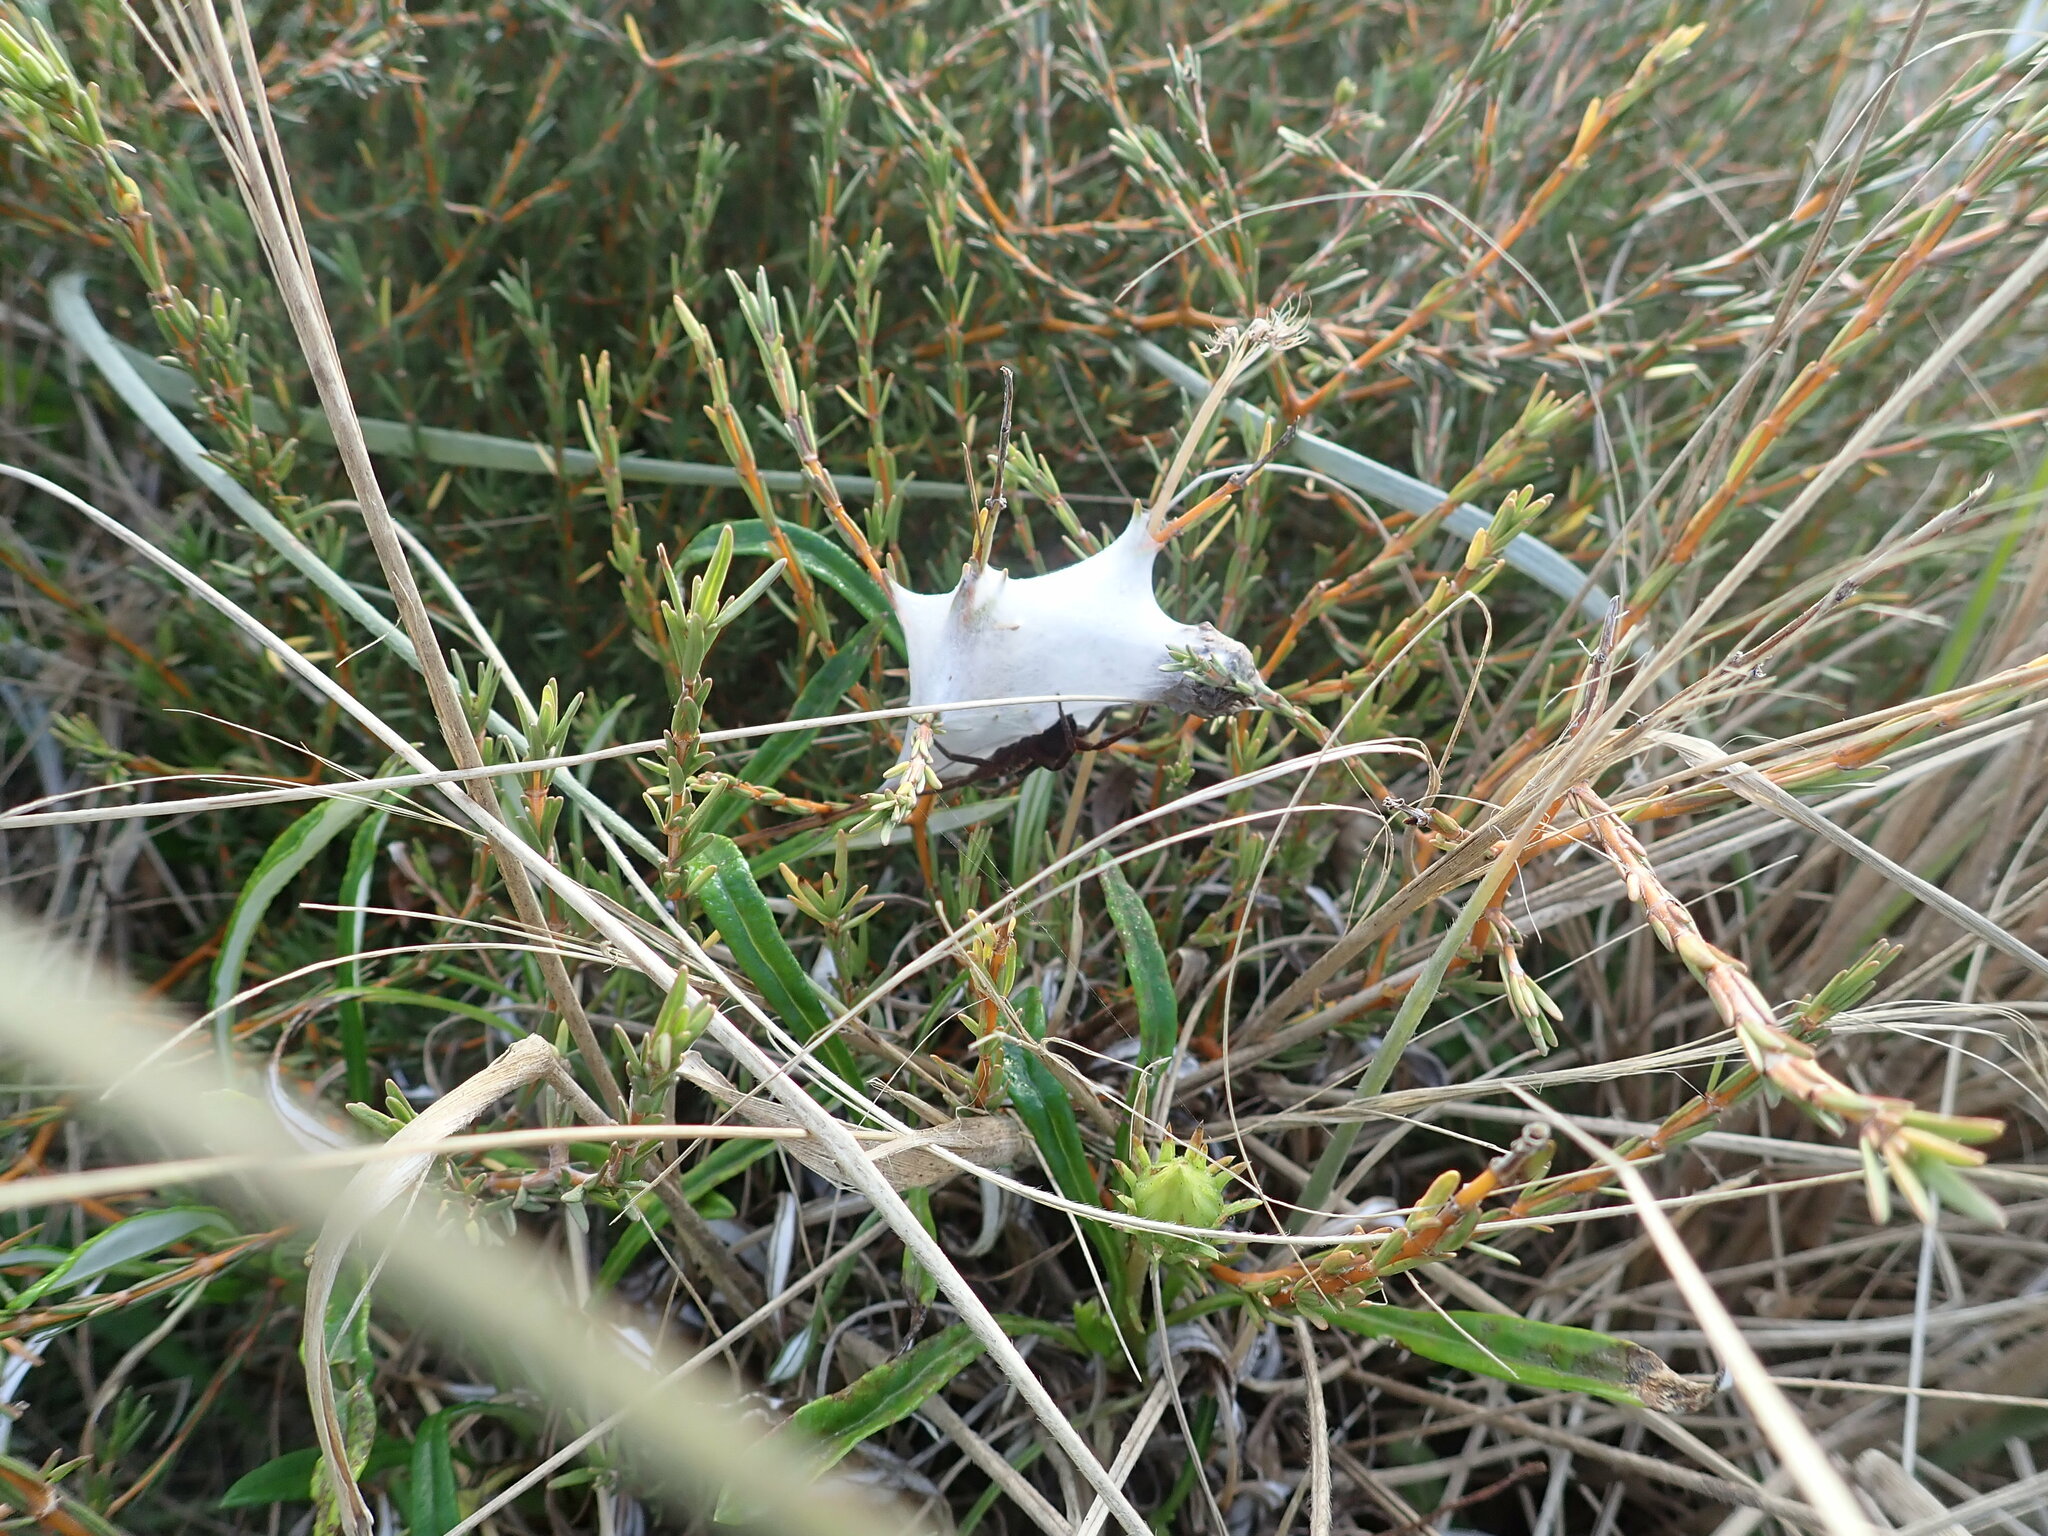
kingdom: Animalia
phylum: Arthropoda
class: Arachnida
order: Araneae
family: Pisauridae
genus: Dolomedes
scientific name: Dolomedes minor
